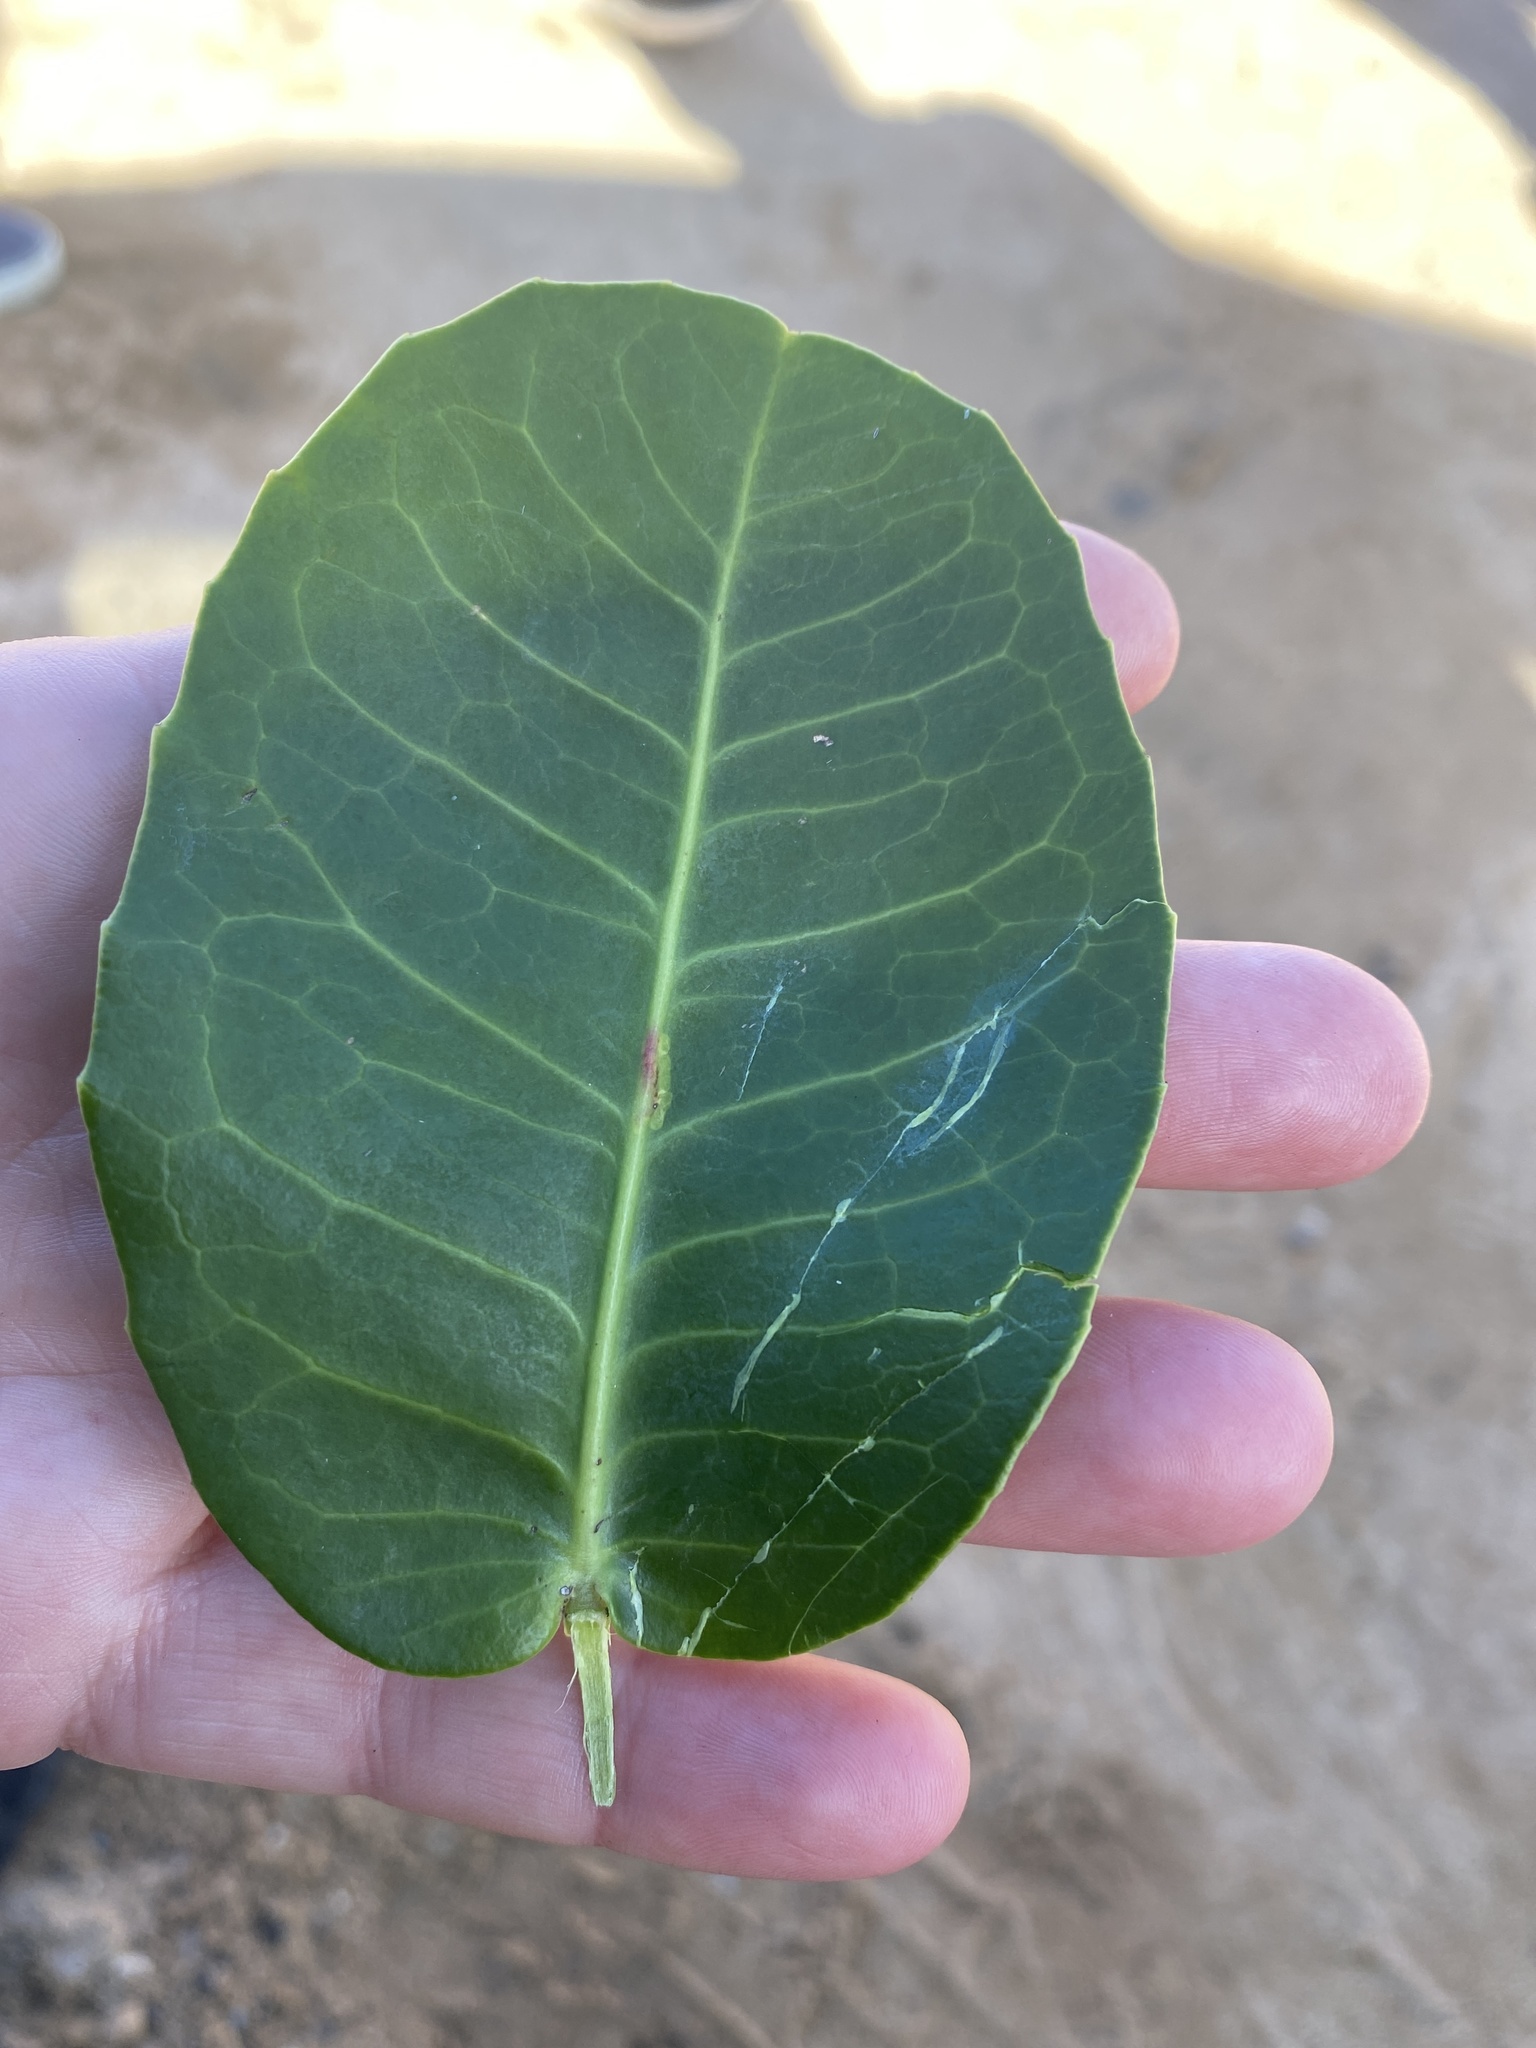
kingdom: Plantae
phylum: Tracheophyta
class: Magnoliopsida
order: Celastrales
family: Celastraceae
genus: Lauridia
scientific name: Lauridia tetragona
